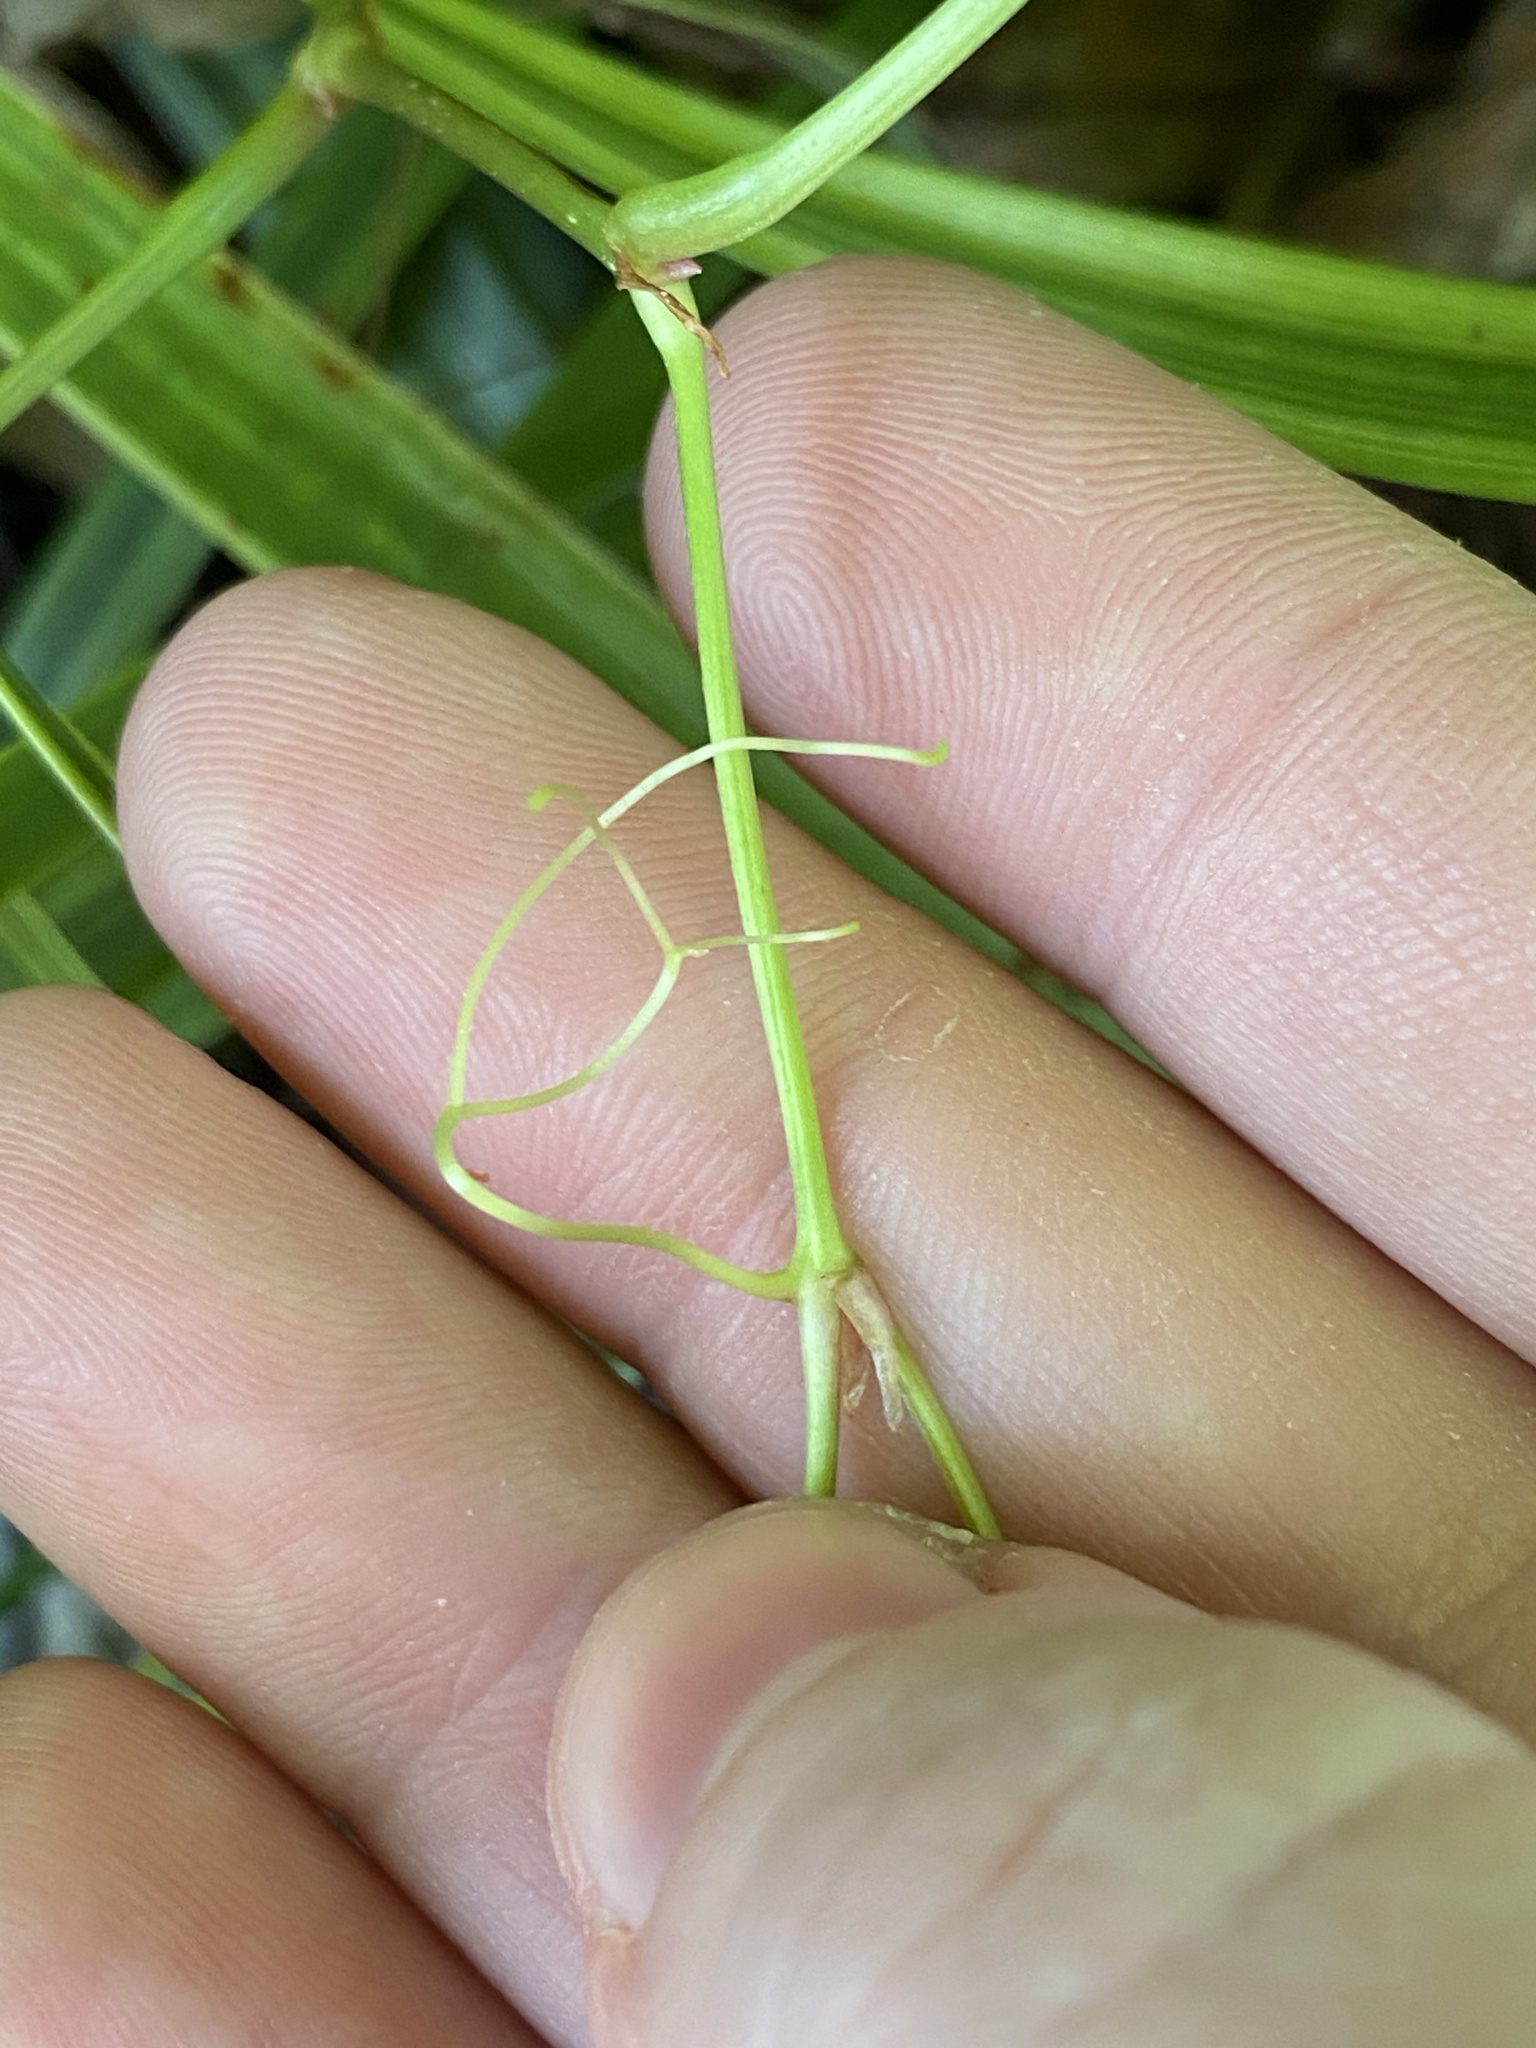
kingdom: Plantae
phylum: Tracheophyta
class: Magnoliopsida
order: Vitales
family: Vitaceae
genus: Parthenocissus
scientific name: Parthenocissus quinquefolia
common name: Virginia-creeper
